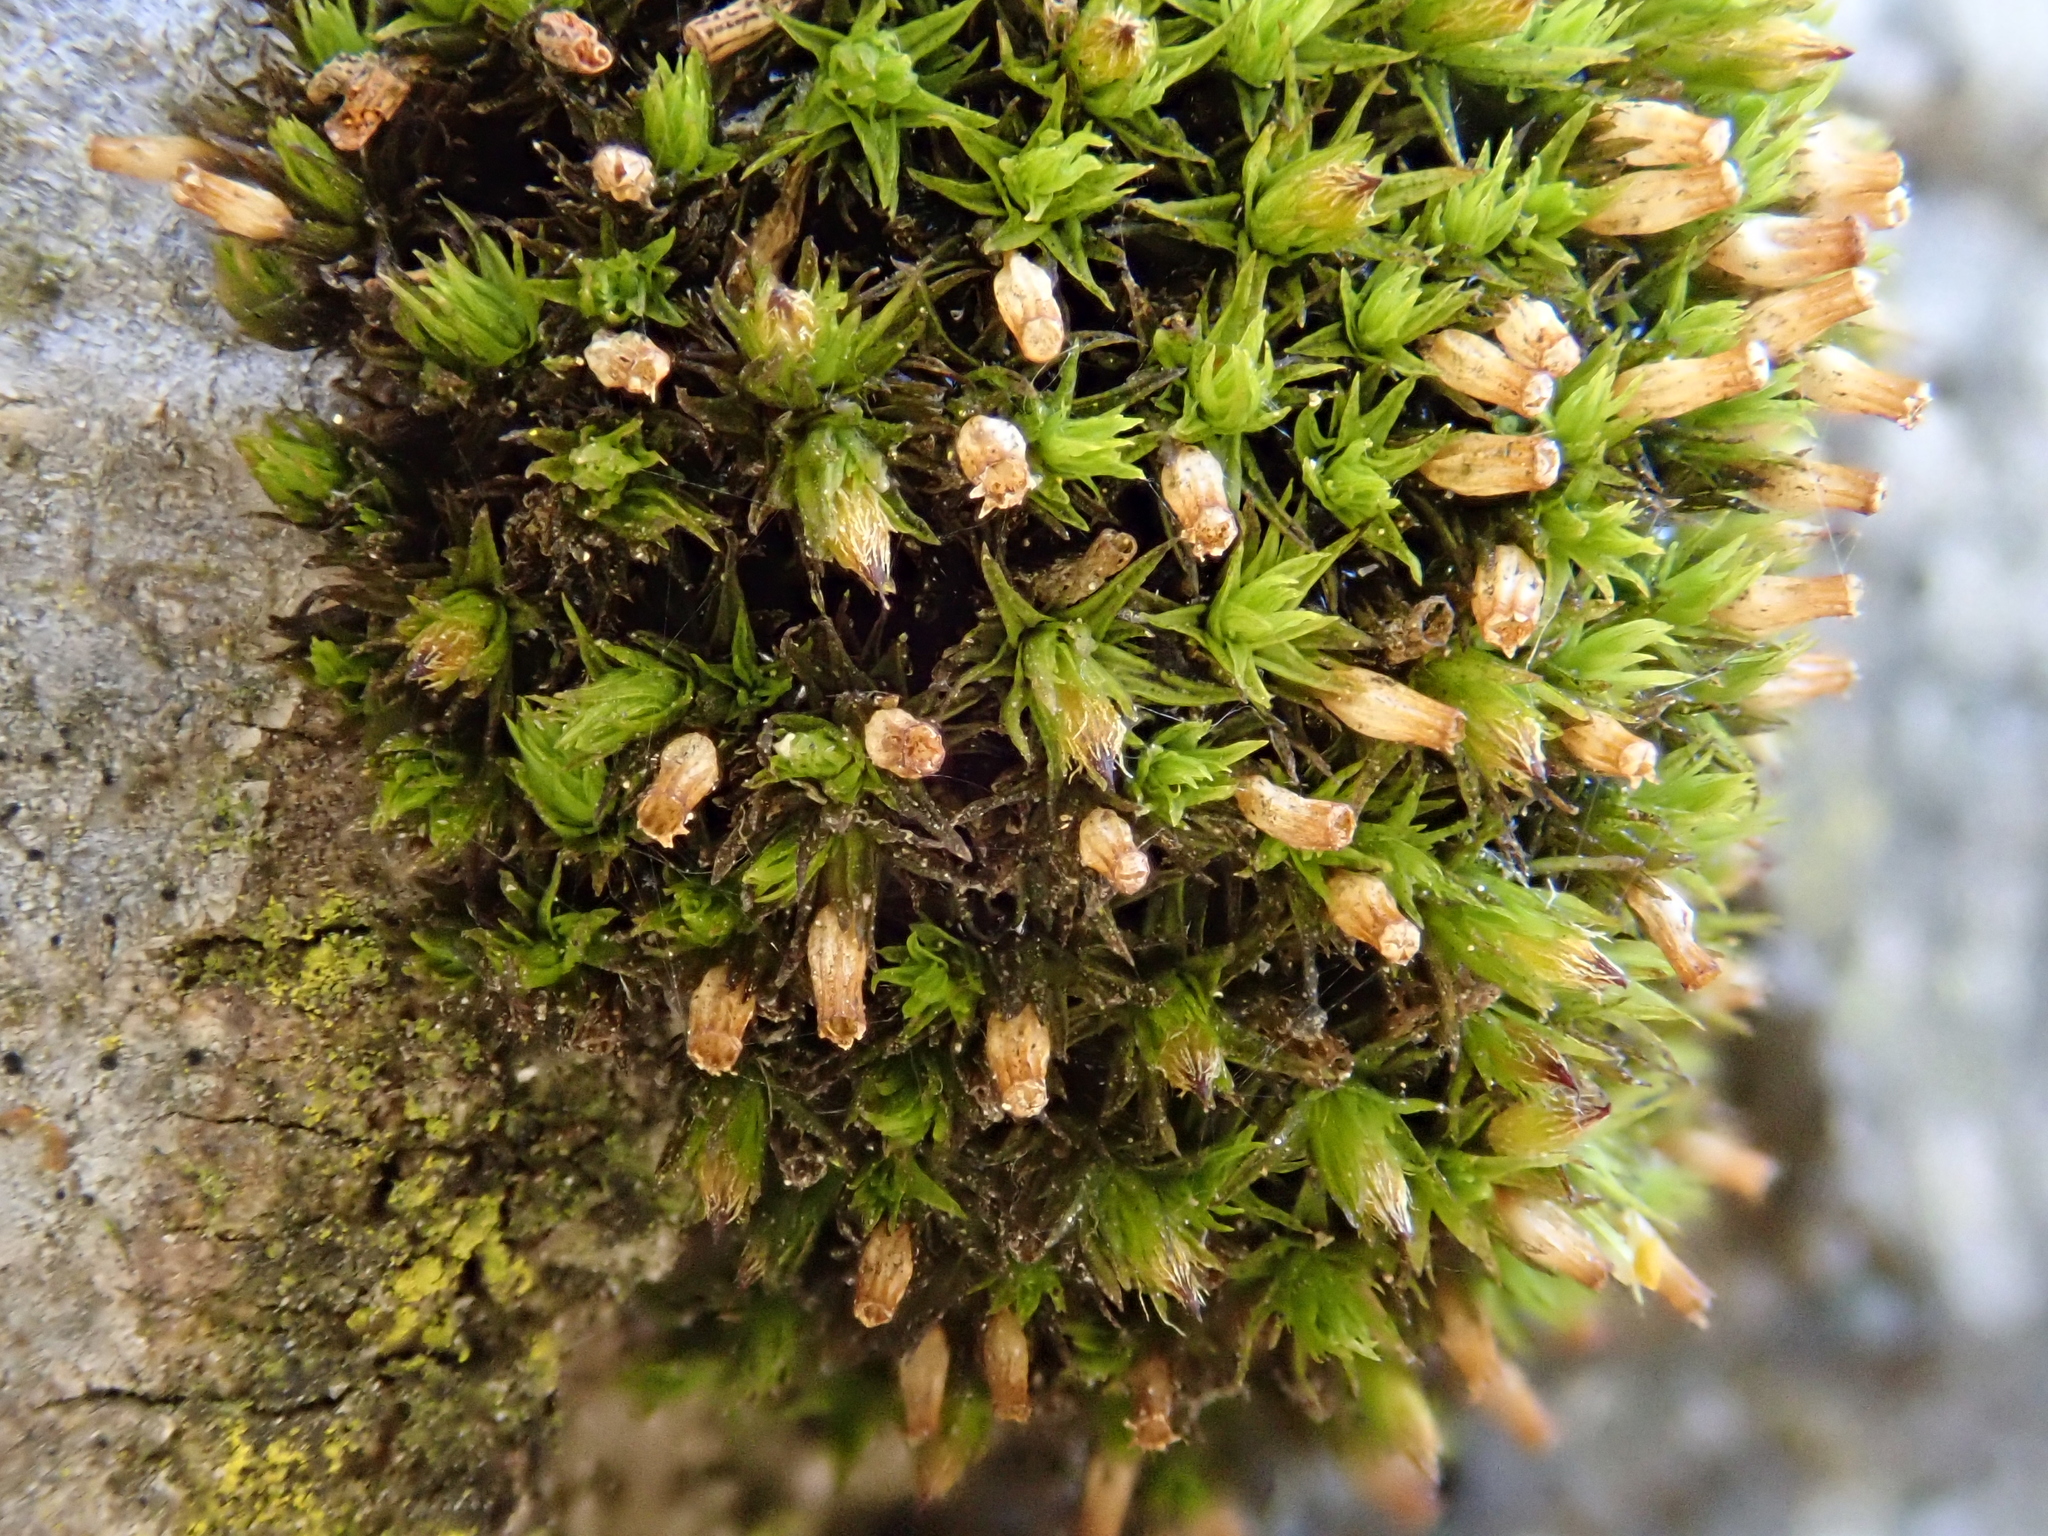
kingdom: Plantae
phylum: Bryophyta
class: Bryopsida
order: Orthotrichales
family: Orthotrichaceae
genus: Orthotrichum
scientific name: Orthotrichum stramineum
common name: Straw bristle-moss
